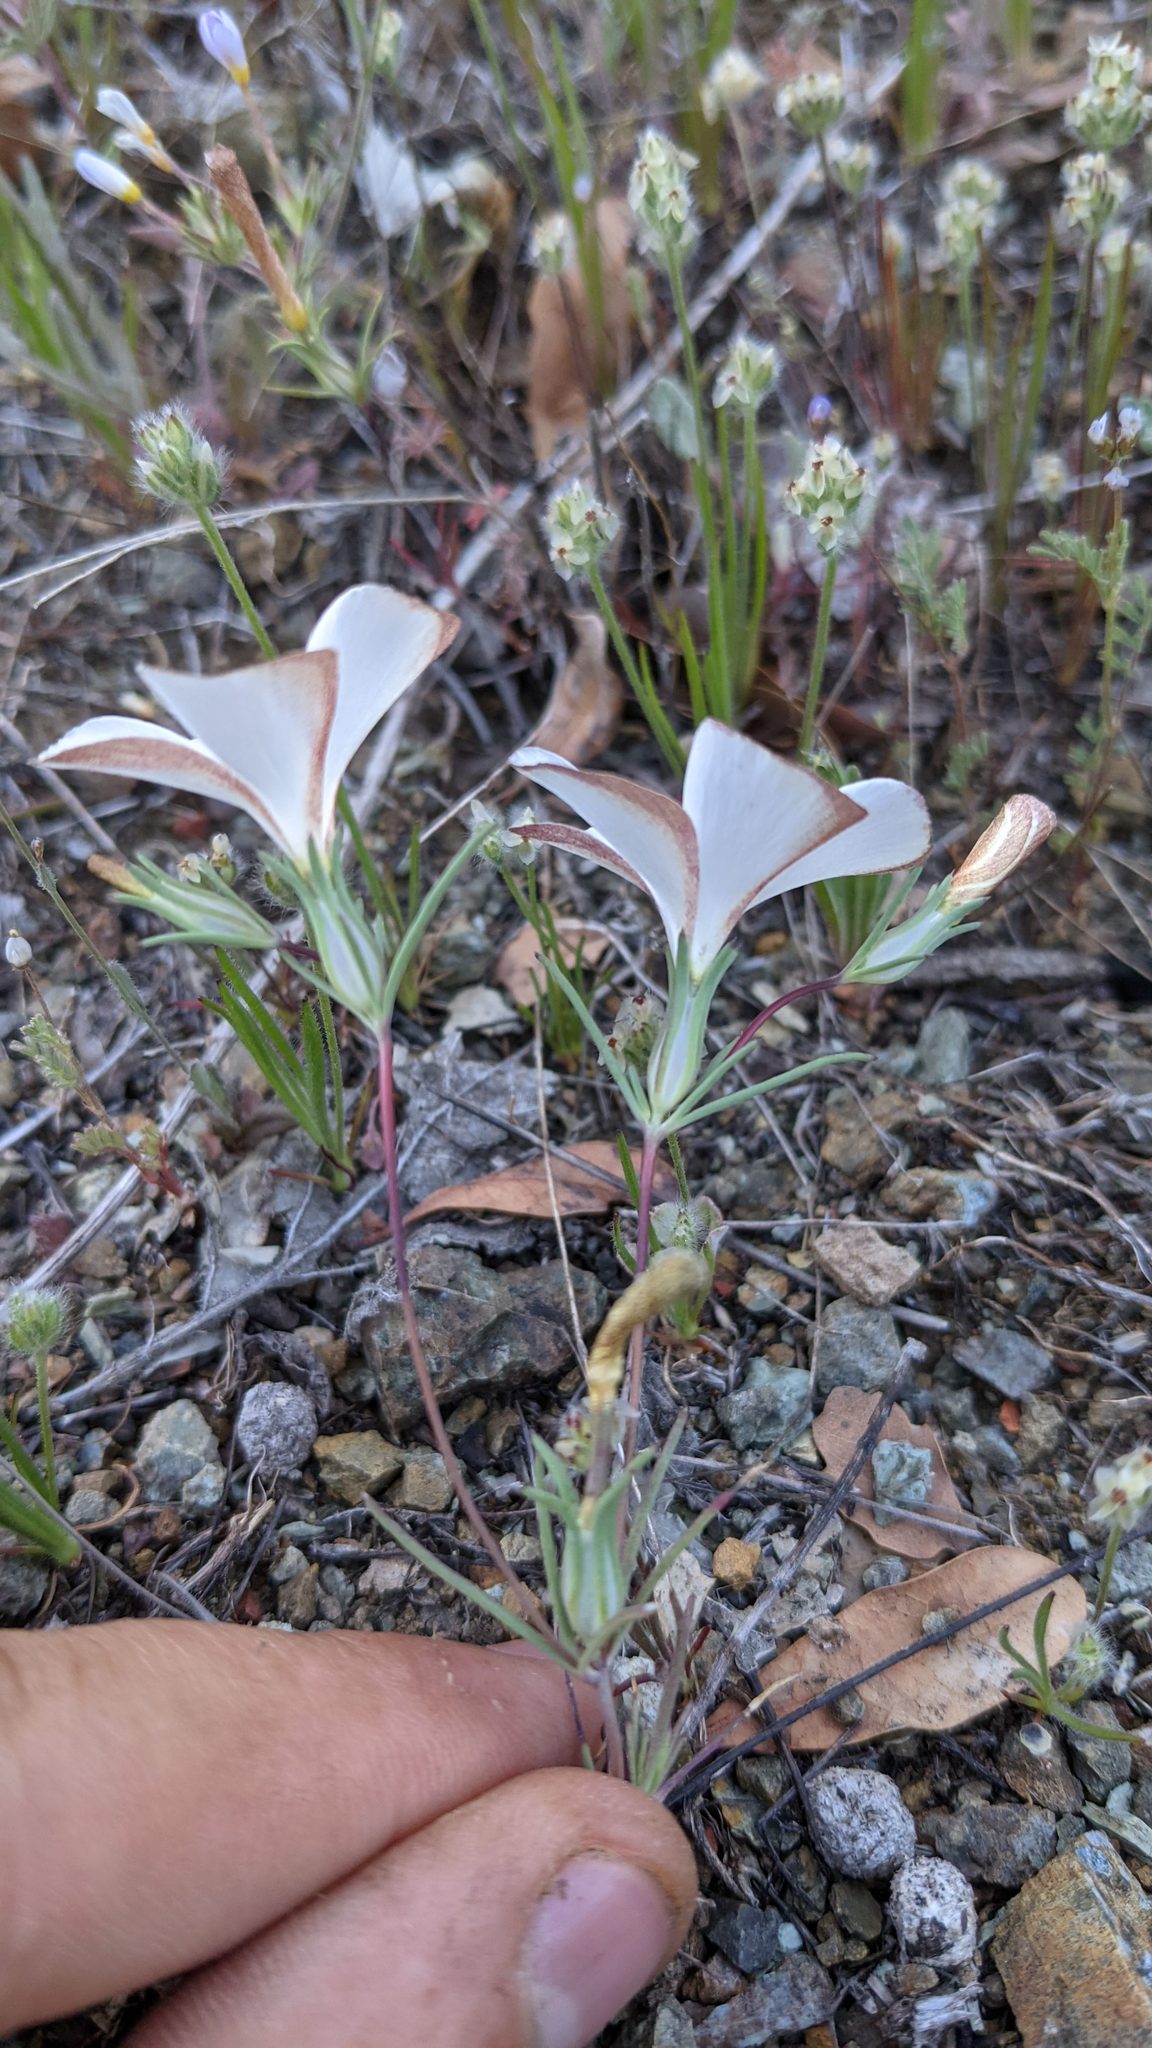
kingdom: Plantae
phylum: Tracheophyta
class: Magnoliopsida
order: Ericales
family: Polemoniaceae
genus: Linanthus
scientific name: Linanthus dichotomus
